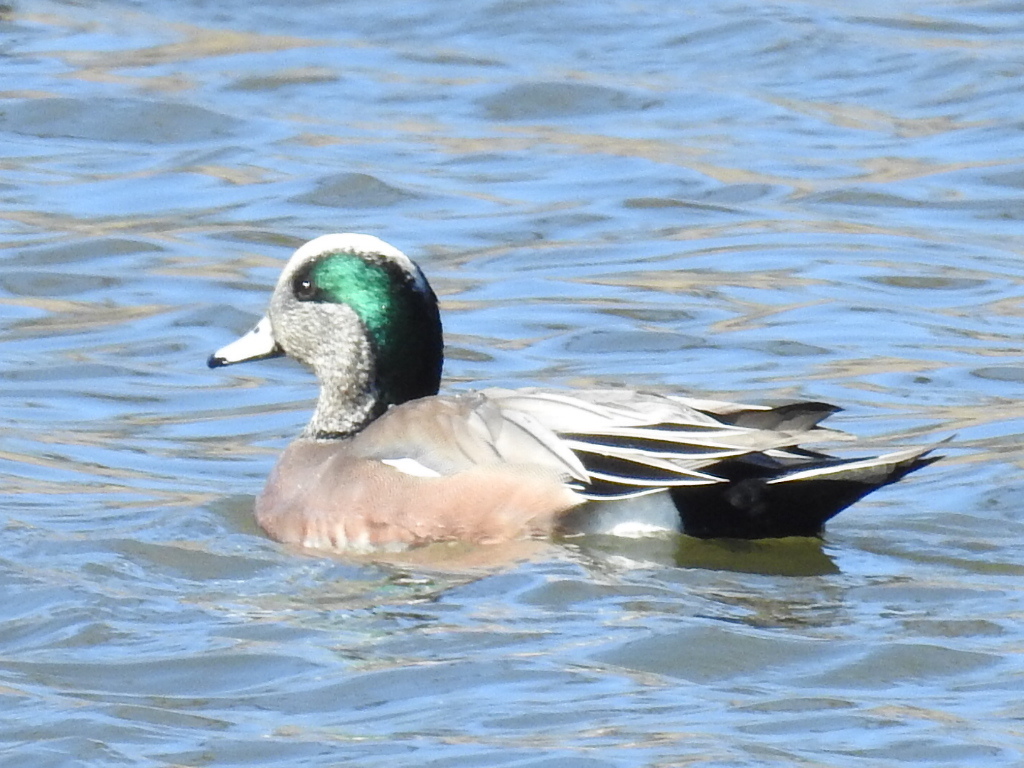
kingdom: Animalia
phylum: Chordata
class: Aves
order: Anseriformes
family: Anatidae
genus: Mareca
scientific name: Mareca americana
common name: American wigeon
